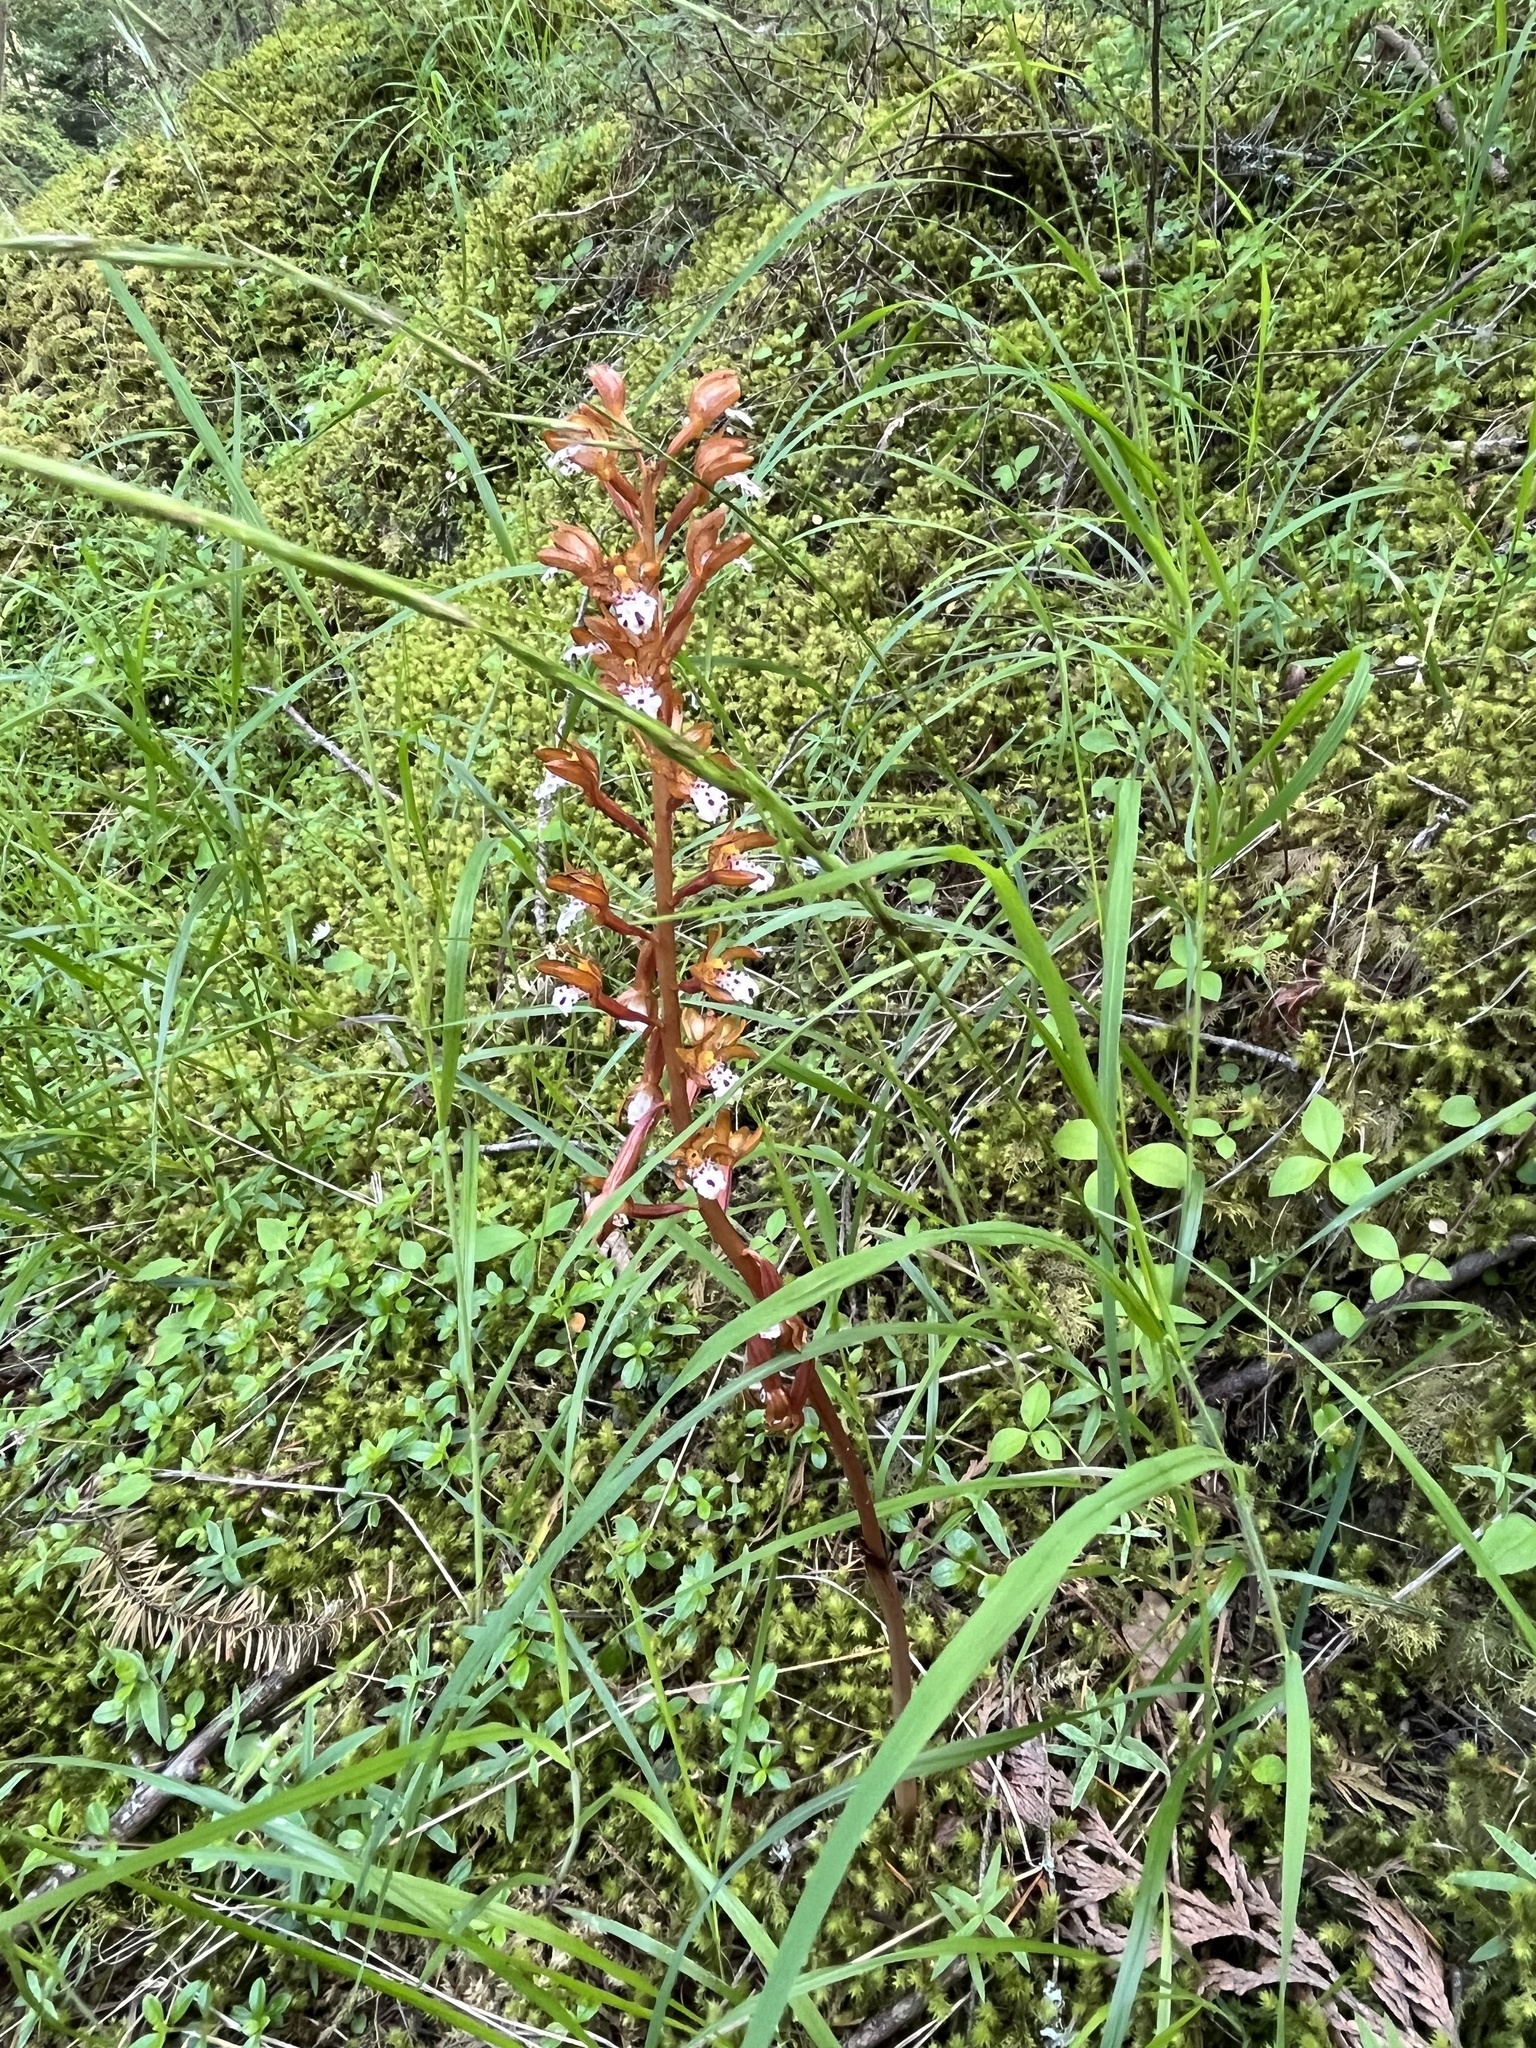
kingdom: Plantae
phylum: Tracheophyta
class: Liliopsida
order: Asparagales
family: Orchidaceae
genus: Corallorhiza
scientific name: Corallorhiza maculata
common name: Spotted coralroot
